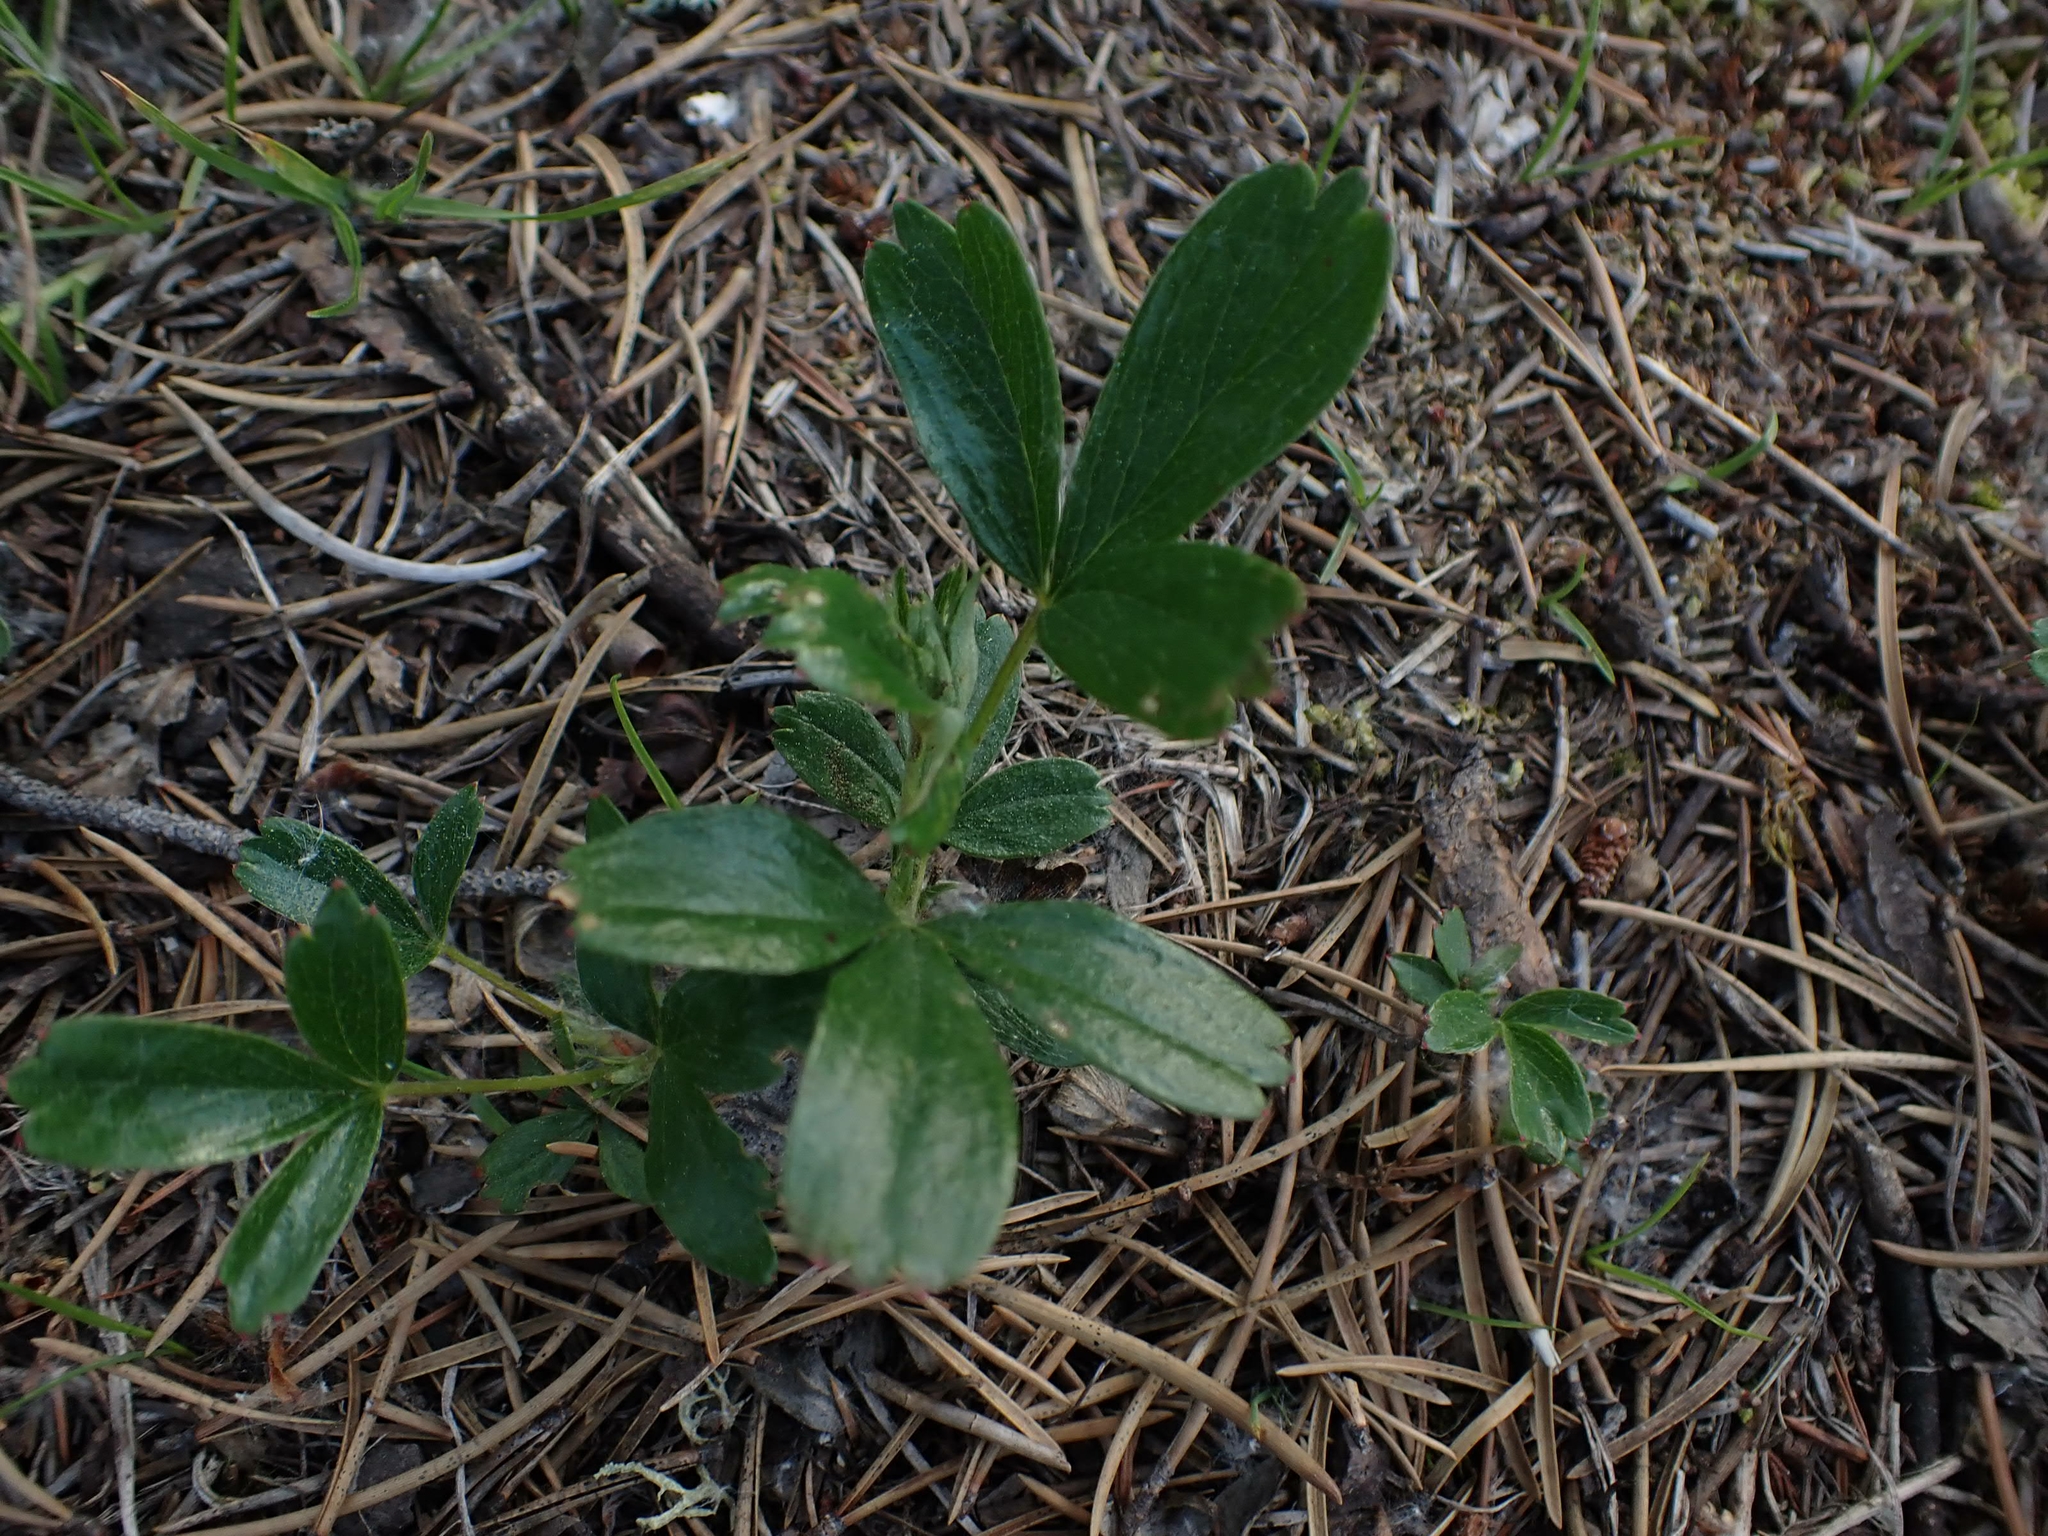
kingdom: Plantae
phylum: Tracheophyta
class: Magnoliopsida
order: Rosales
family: Rosaceae
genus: Sibbaldia
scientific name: Sibbaldia tridentata
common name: Three-toothed cinquefoil
